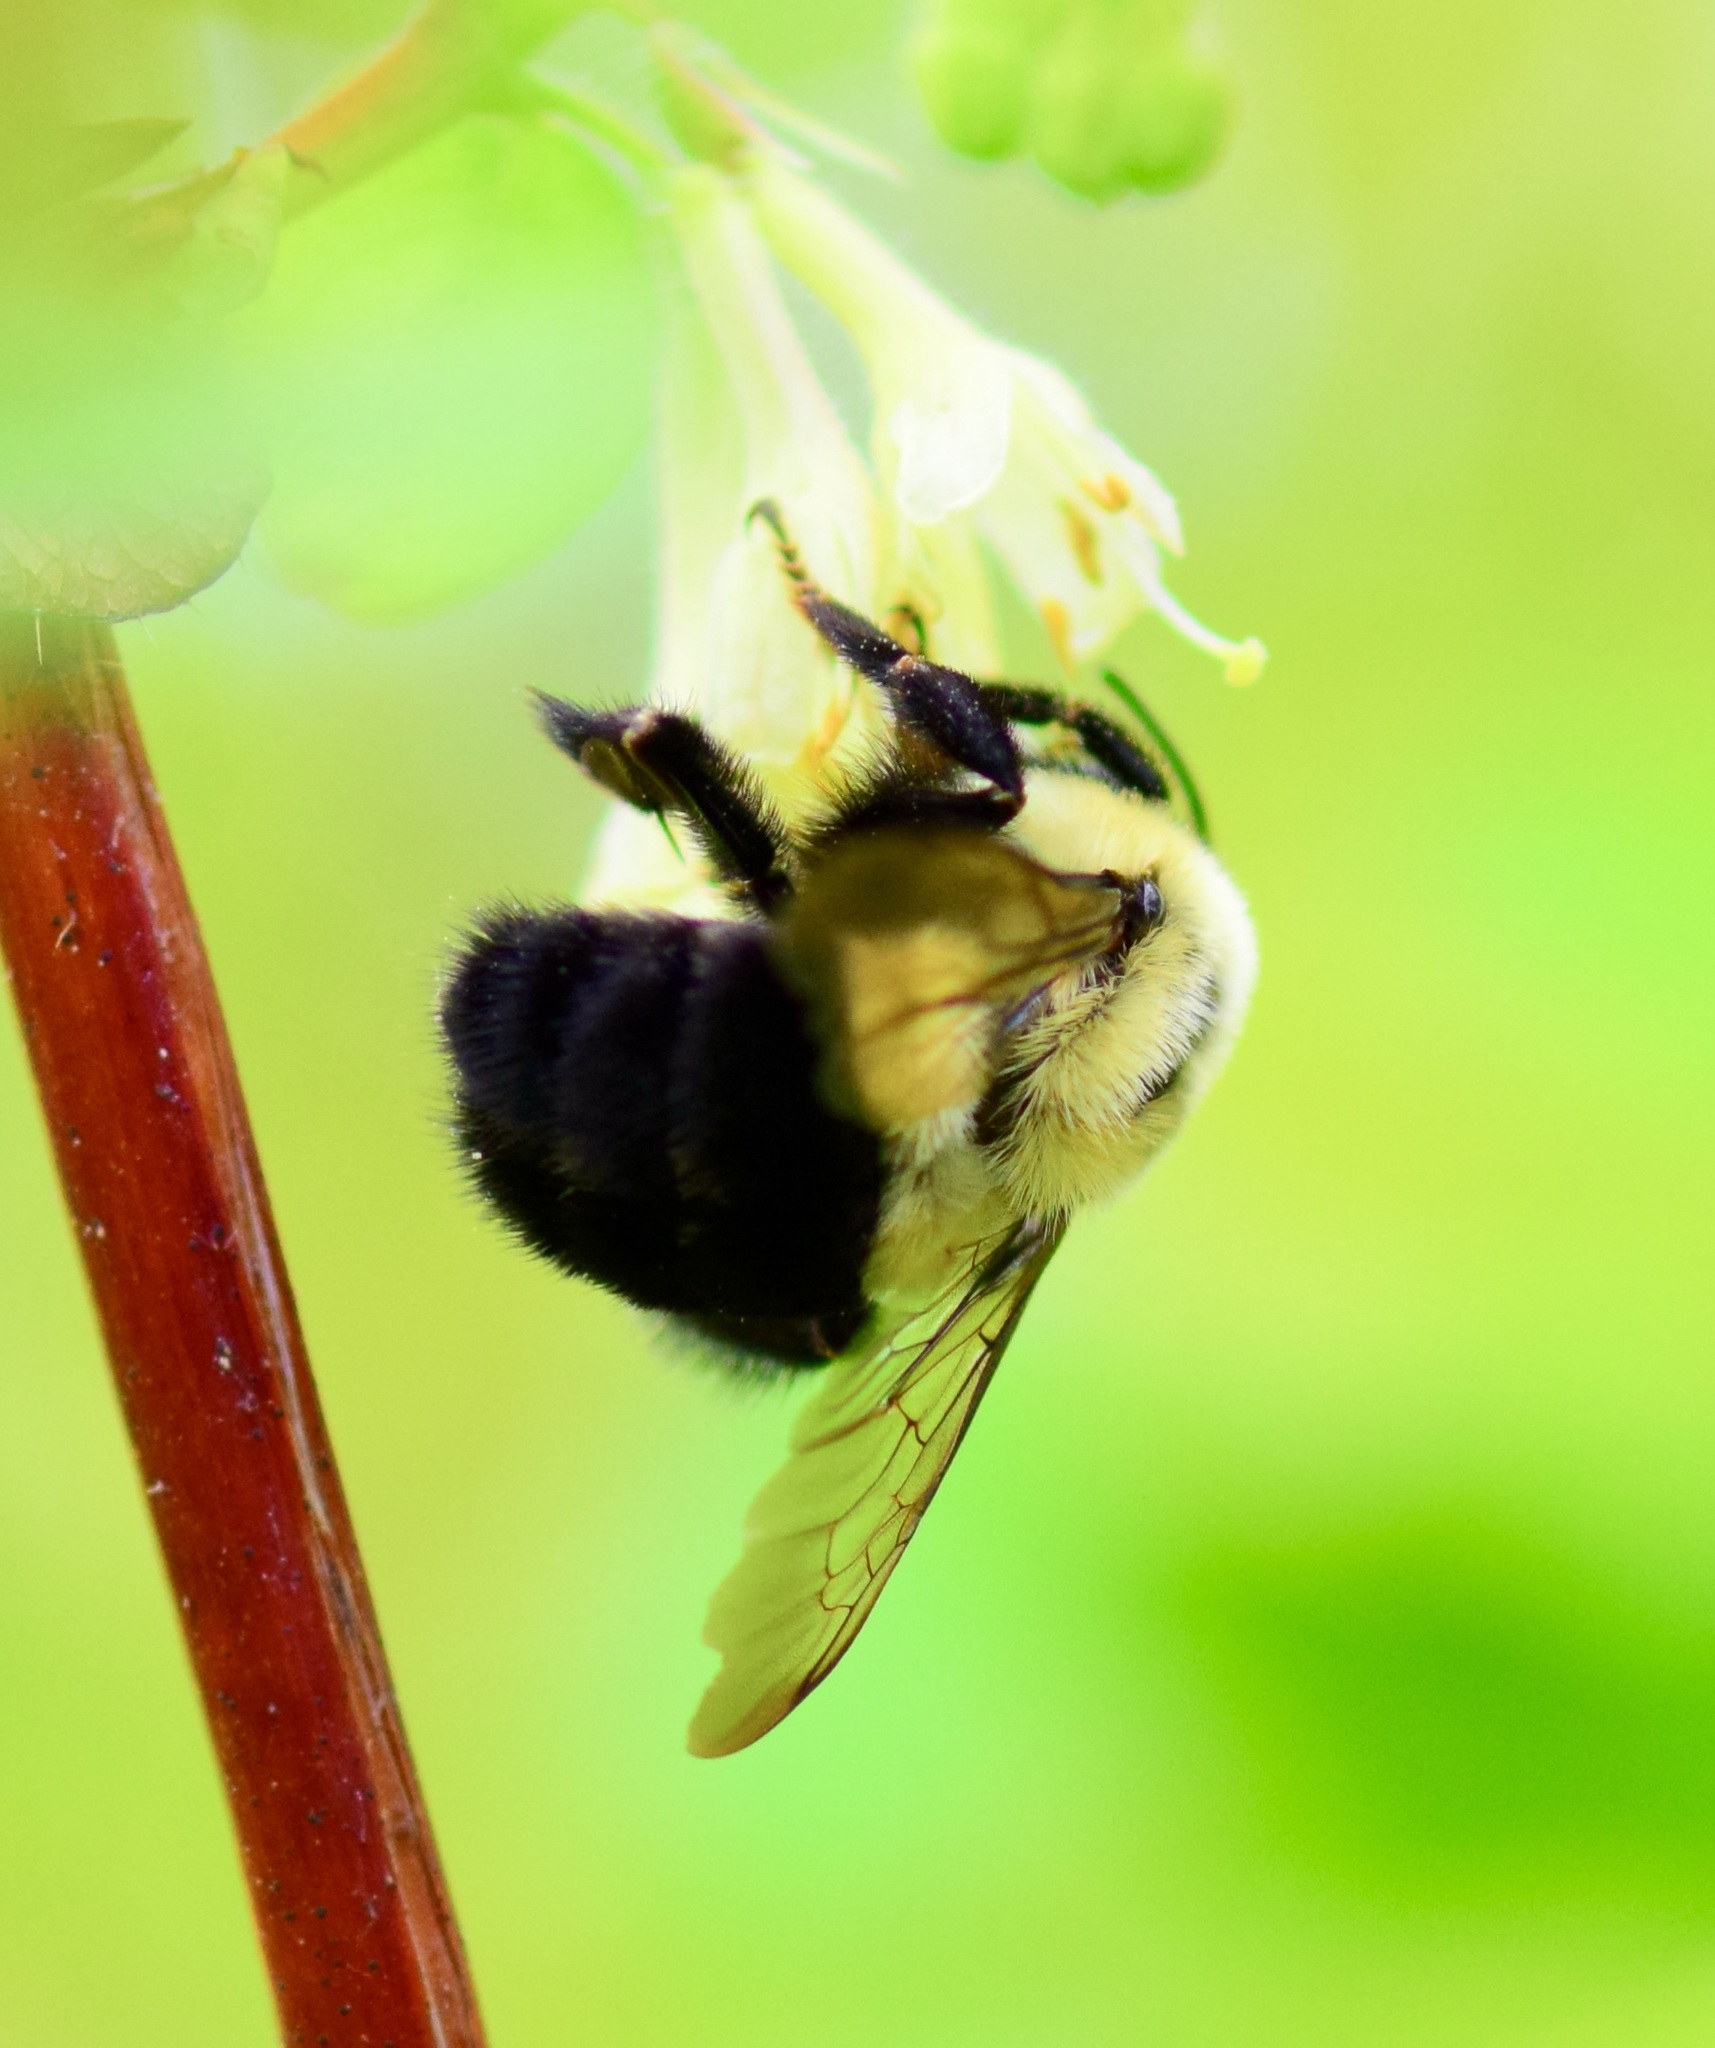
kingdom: Animalia
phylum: Arthropoda
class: Insecta
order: Hymenoptera
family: Apidae
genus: Bombus
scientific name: Bombus impatiens
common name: Common eastern bumble bee
